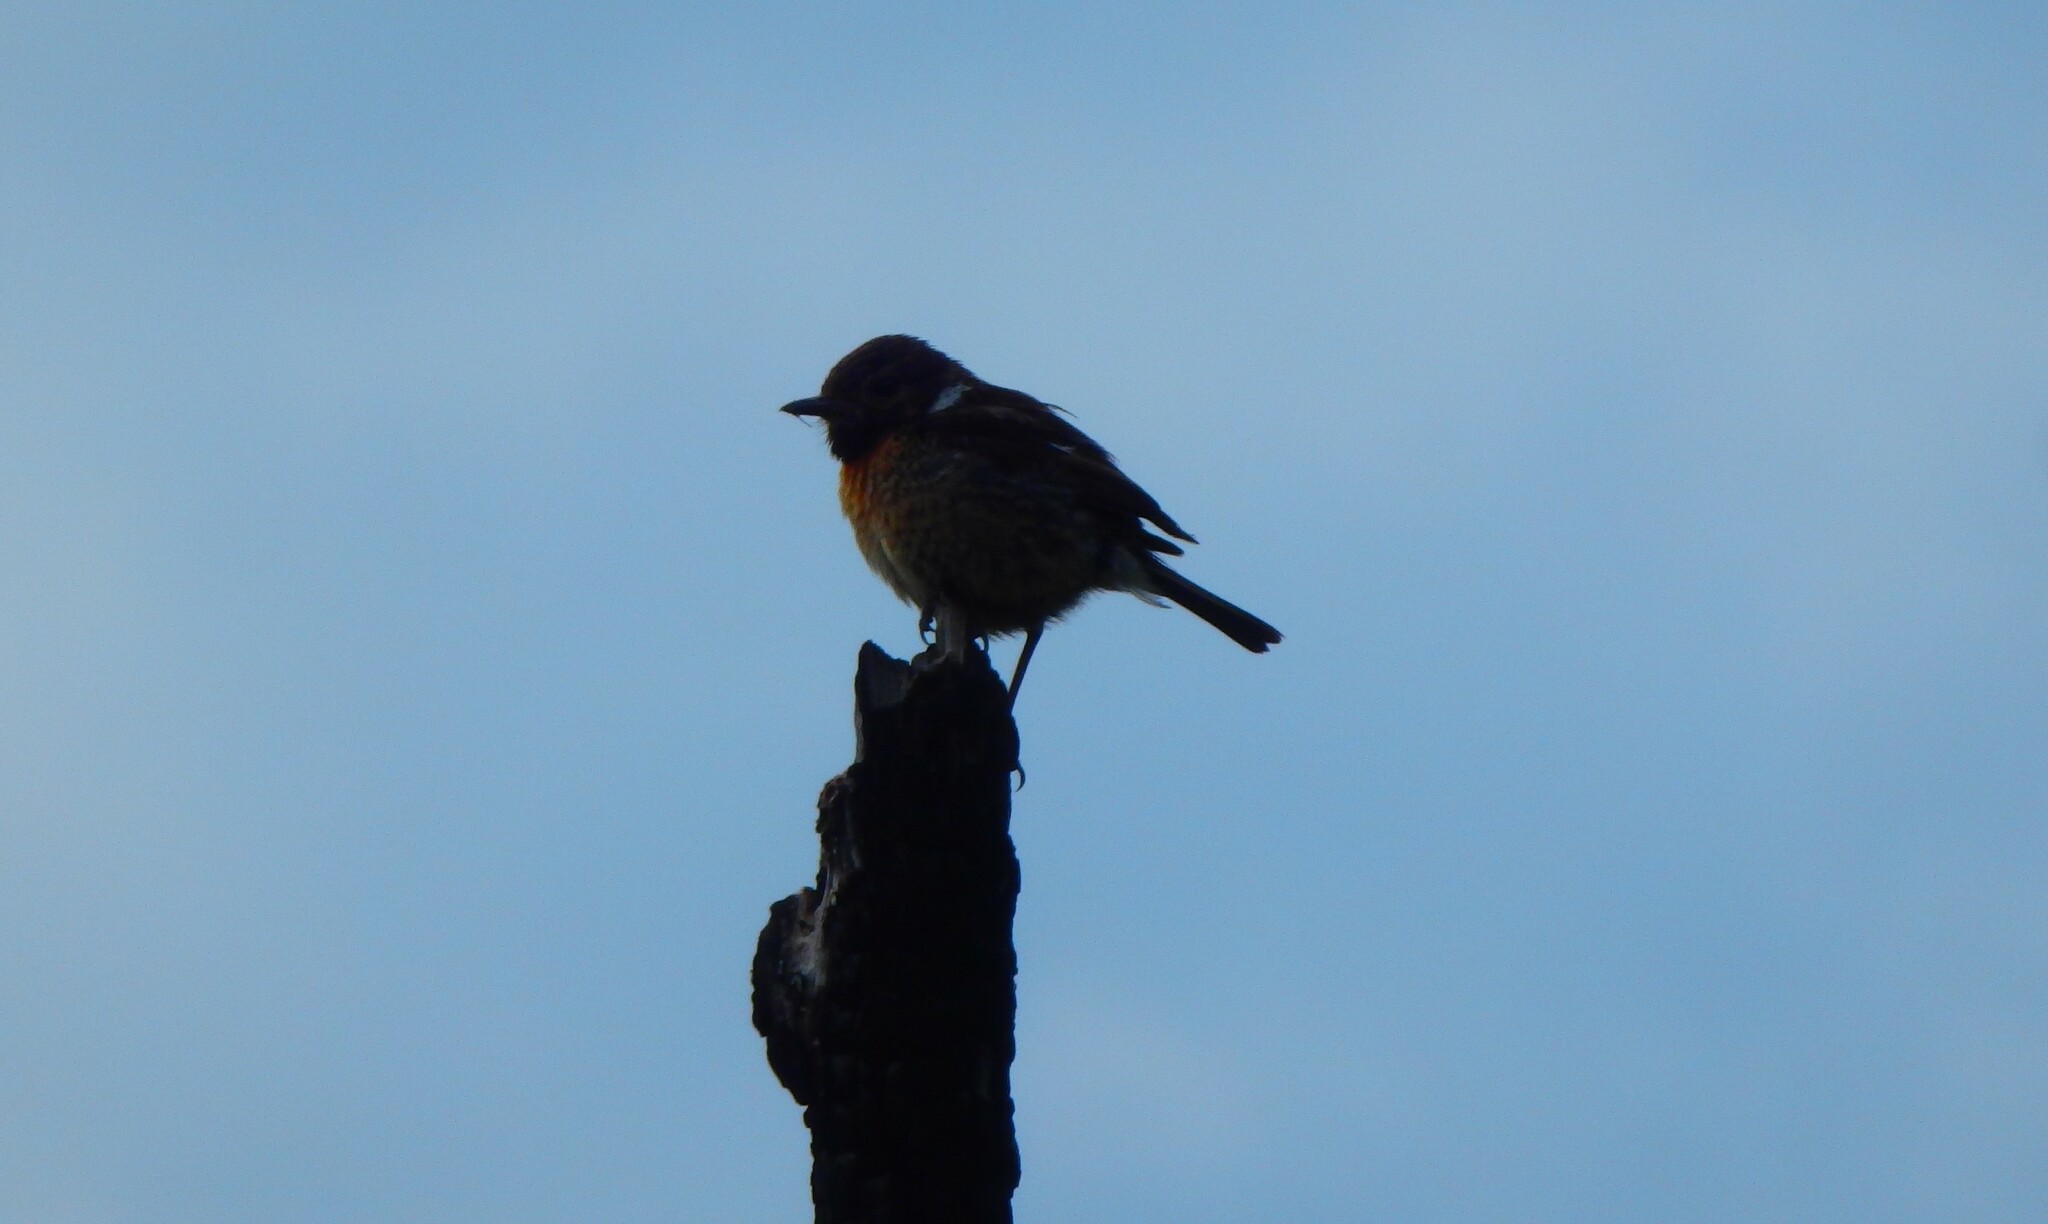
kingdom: Animalia
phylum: Chordata
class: Aves
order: Passeriformes
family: Muscicapidae
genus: Saxicola
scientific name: Saxicola rubicola
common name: European stonechat
